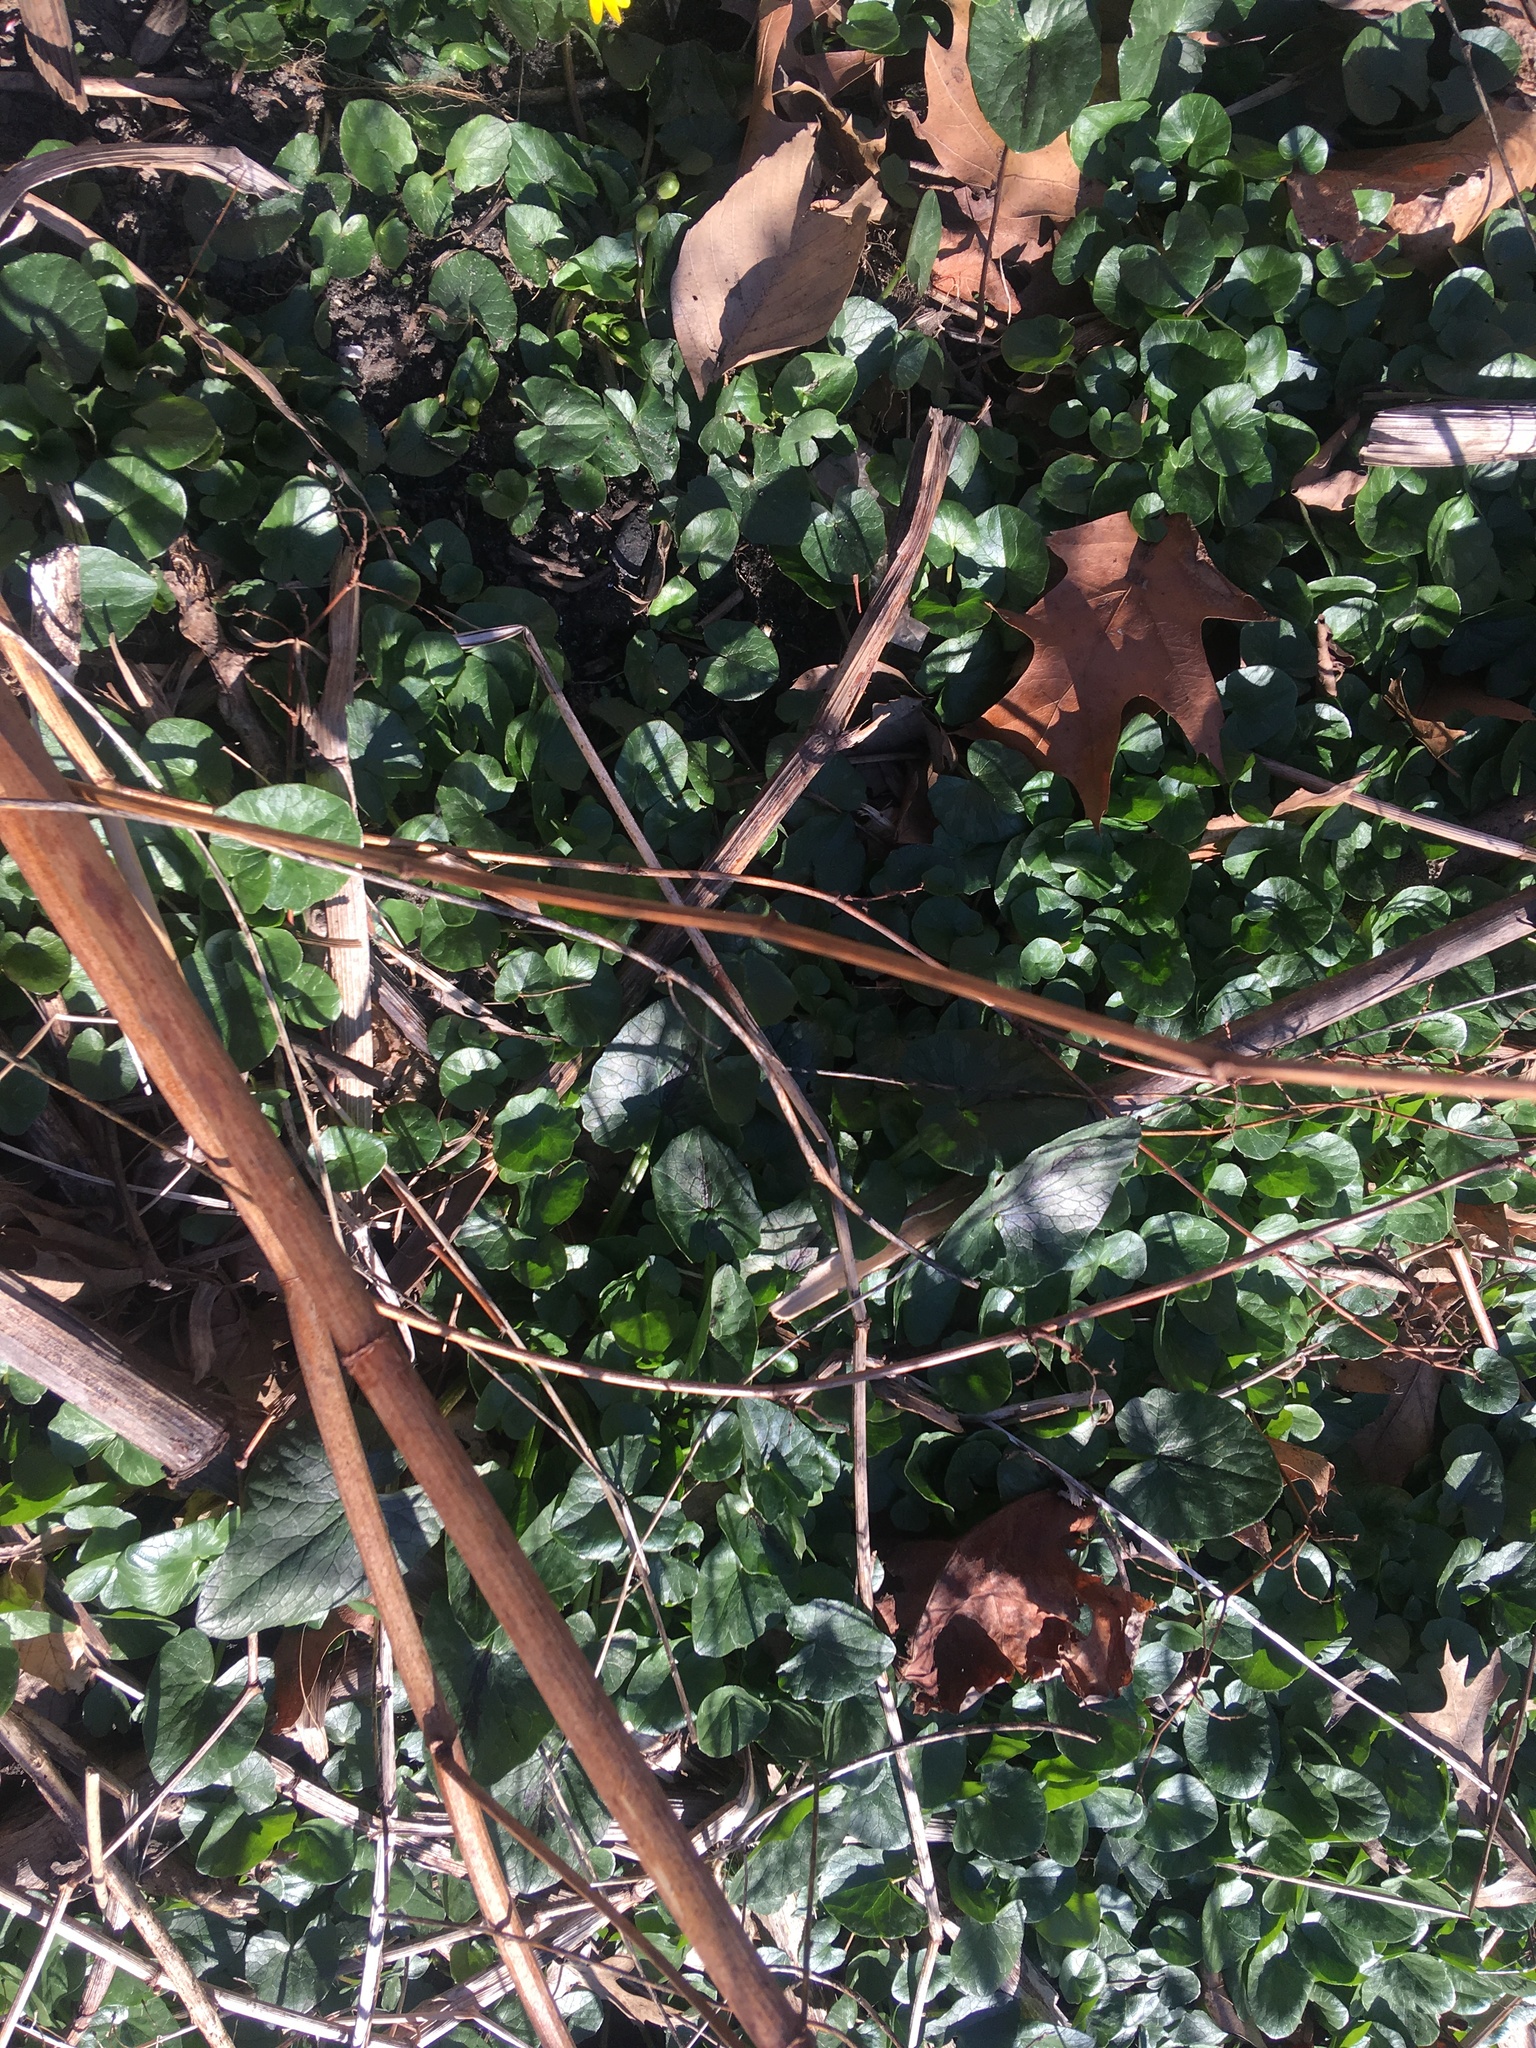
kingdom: Plantae
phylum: Tracheophyta
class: Magnoliopsida
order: Ranunculales
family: Ranunculaceae
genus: Ficaria
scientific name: Ficaria verna
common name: Lesser celandine
